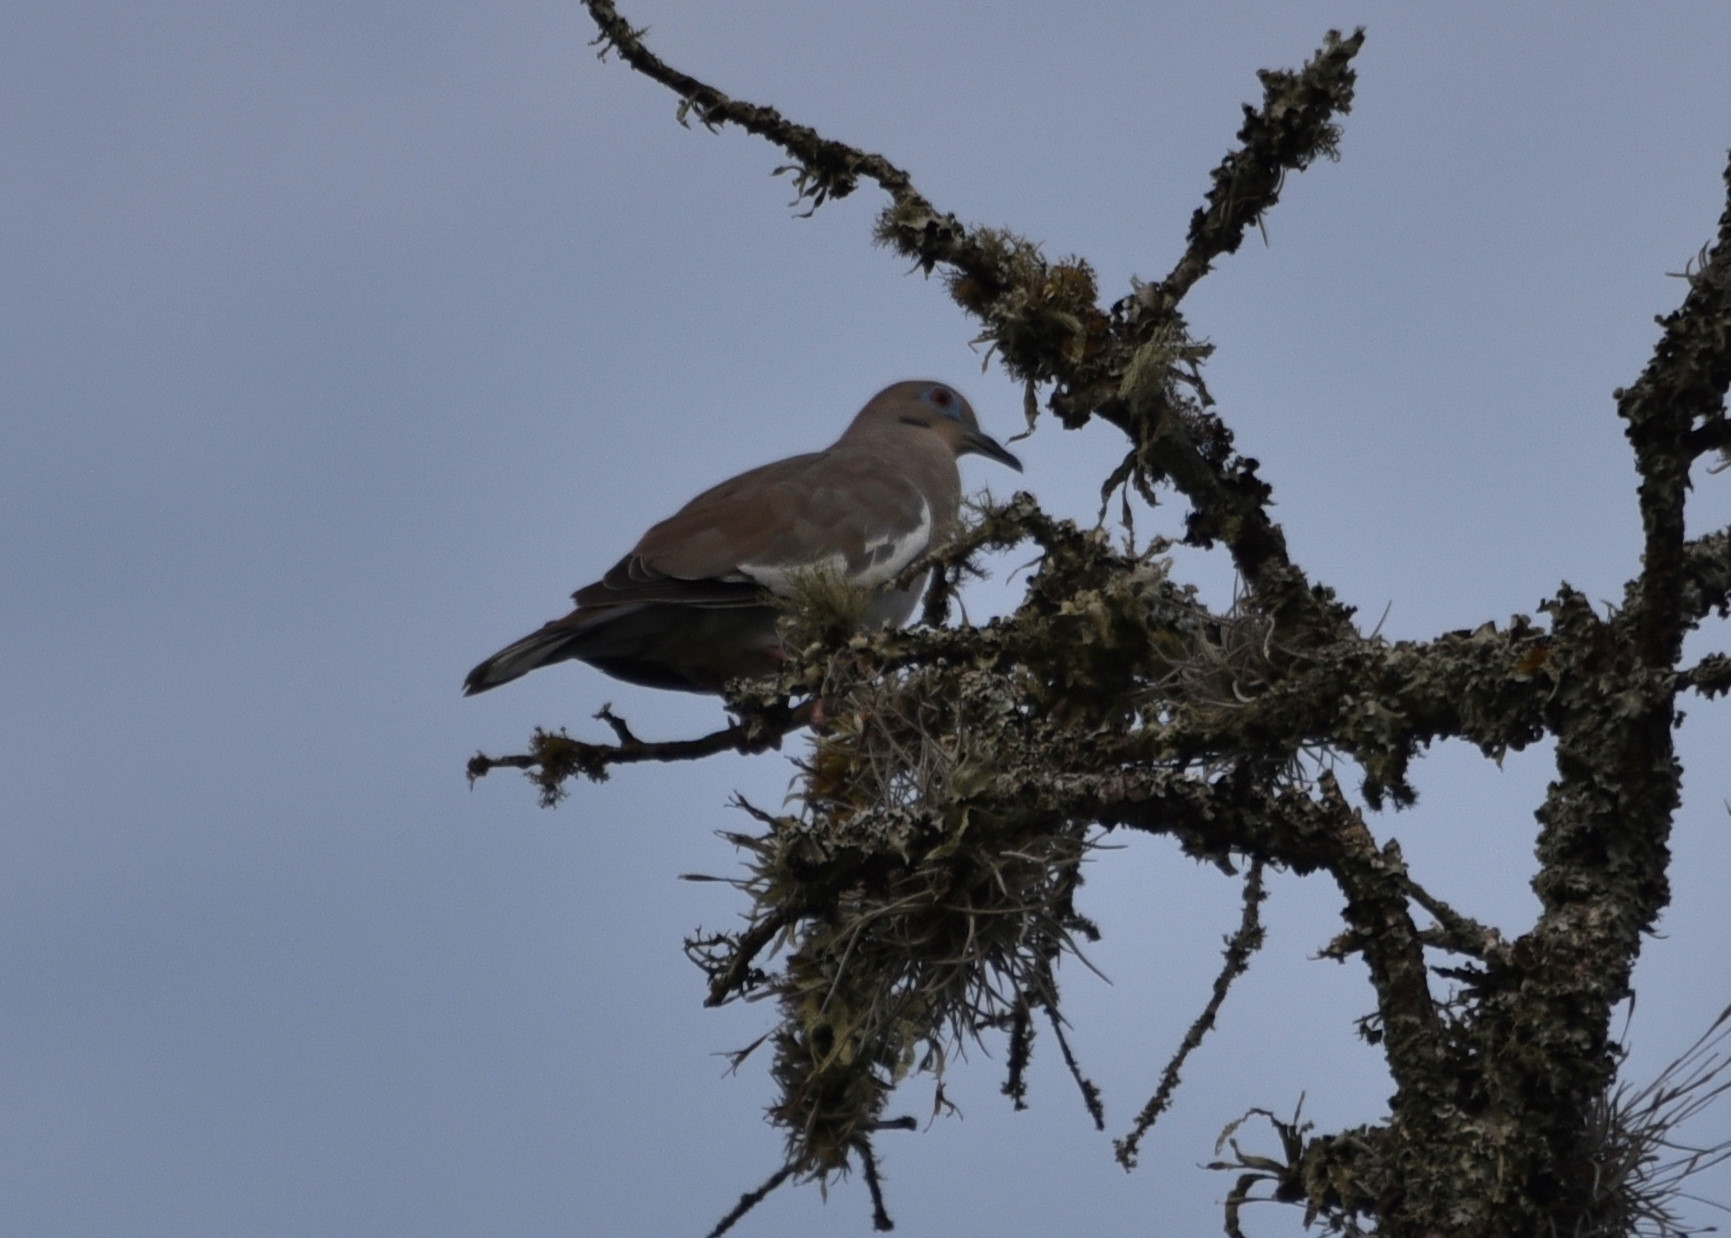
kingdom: Animalia
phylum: Chordata
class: Aves
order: Columbiformes
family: Columbidae
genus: Zenaida
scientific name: Zenaida asiatica
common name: White-winged dove
